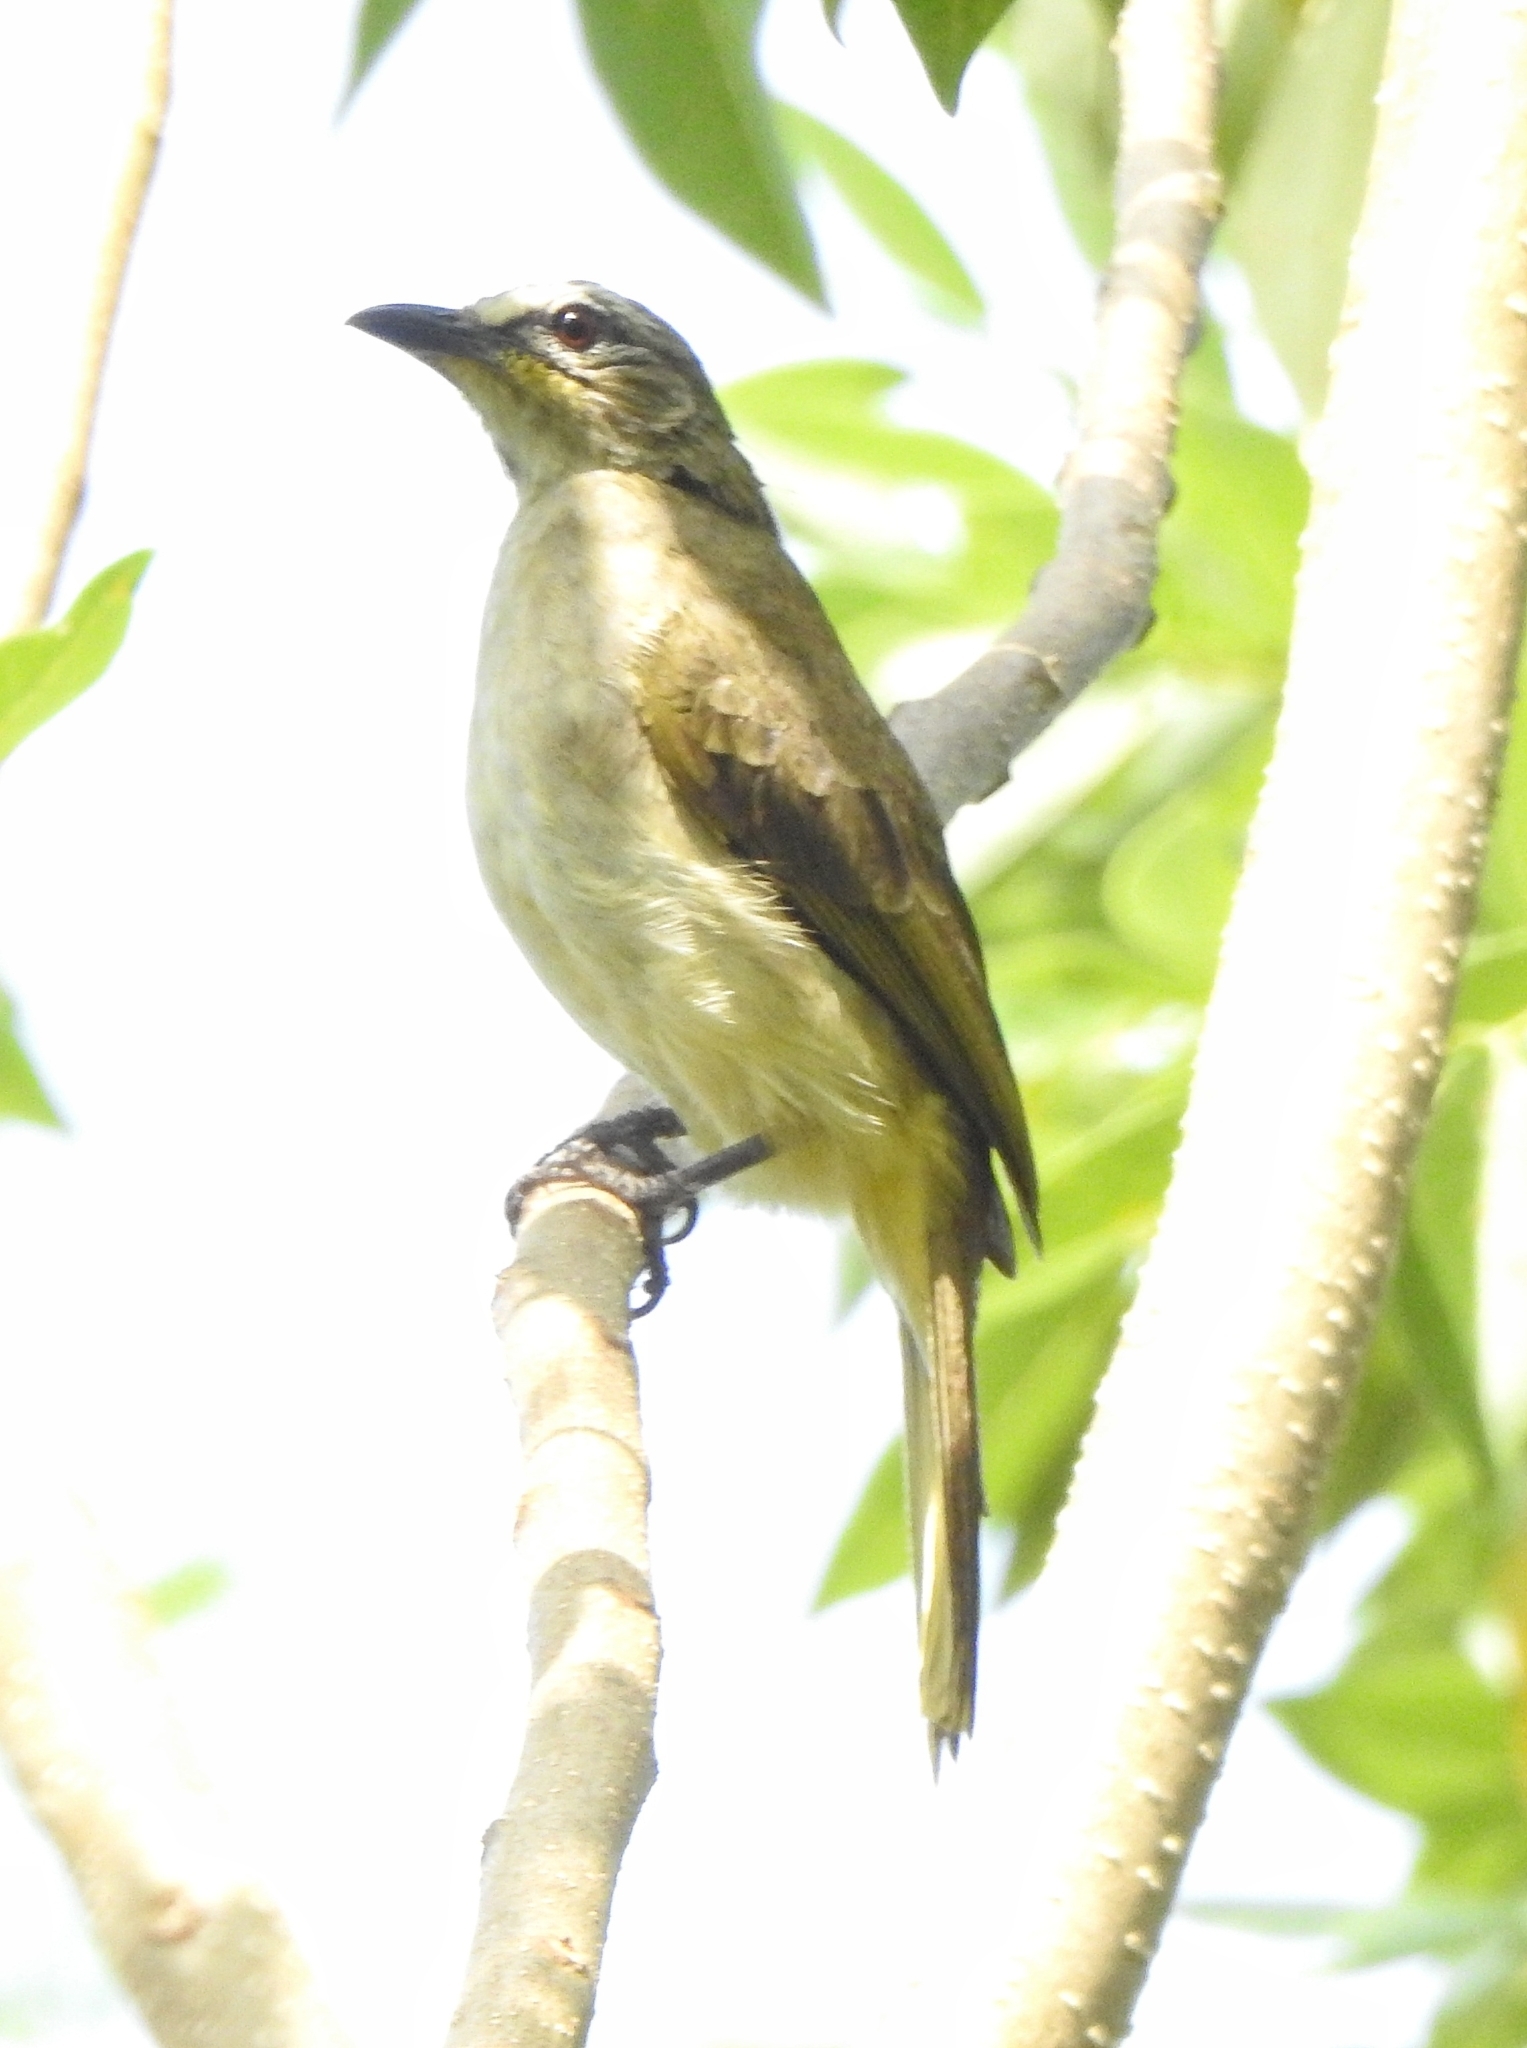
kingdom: Animalia
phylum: Chordata
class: Aves
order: Passeriformes
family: Pycnonotidae
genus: Pycnonotus
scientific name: Pycnonotus luteolus
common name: White-browed bulbul
